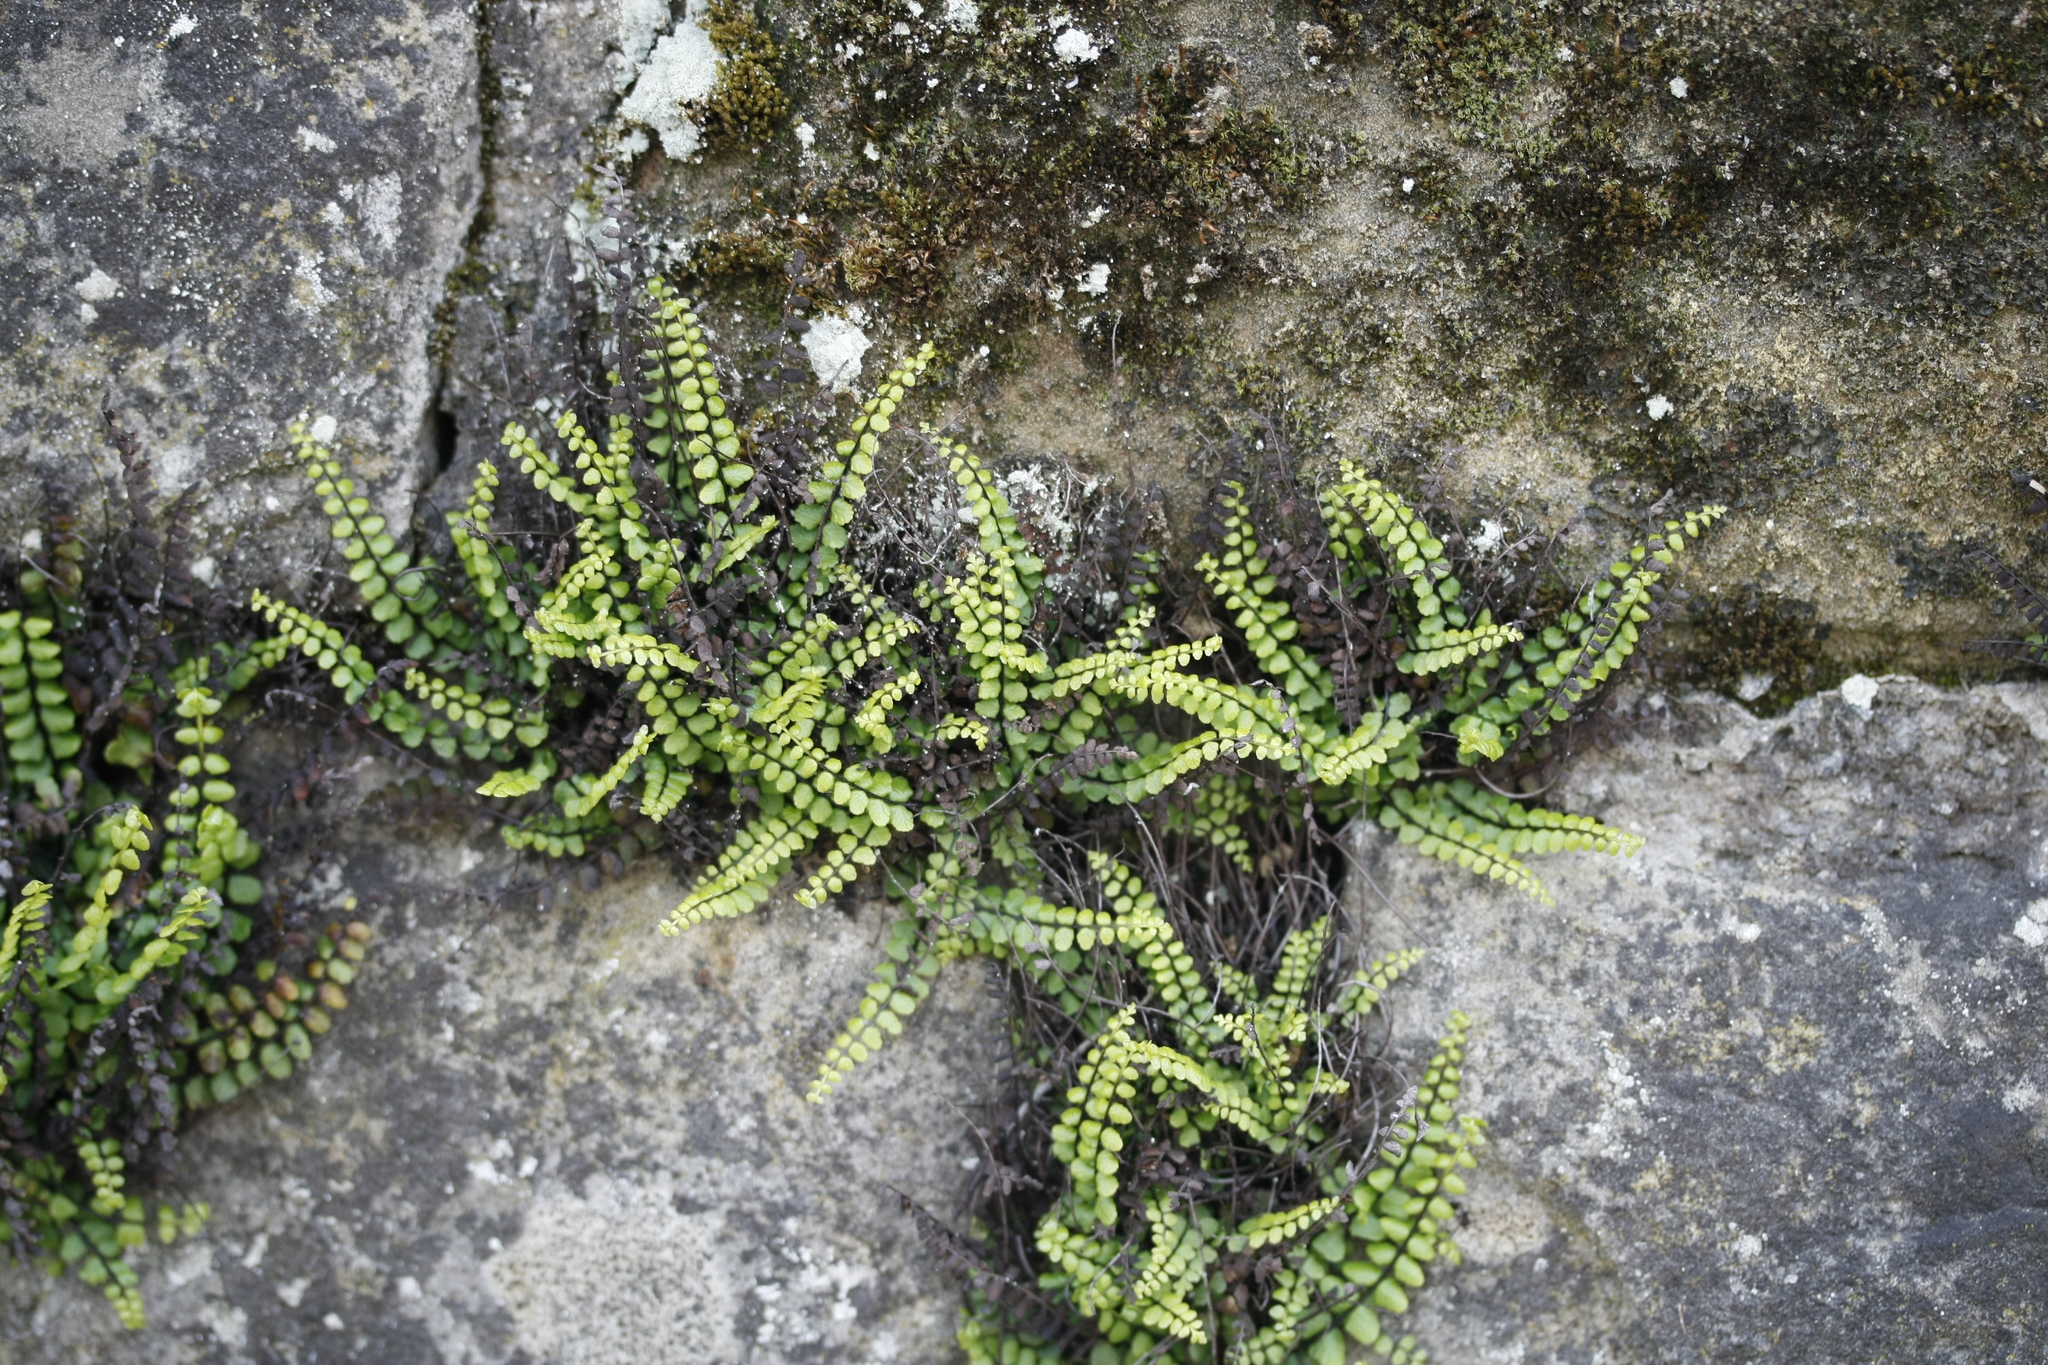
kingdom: Plantae
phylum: Tracheophyta
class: Polypodiopsida
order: Polypodiales
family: Aspleniaceae
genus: Asplenium
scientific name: Asplenium trichomanes
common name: Maidenhair spleenwort
